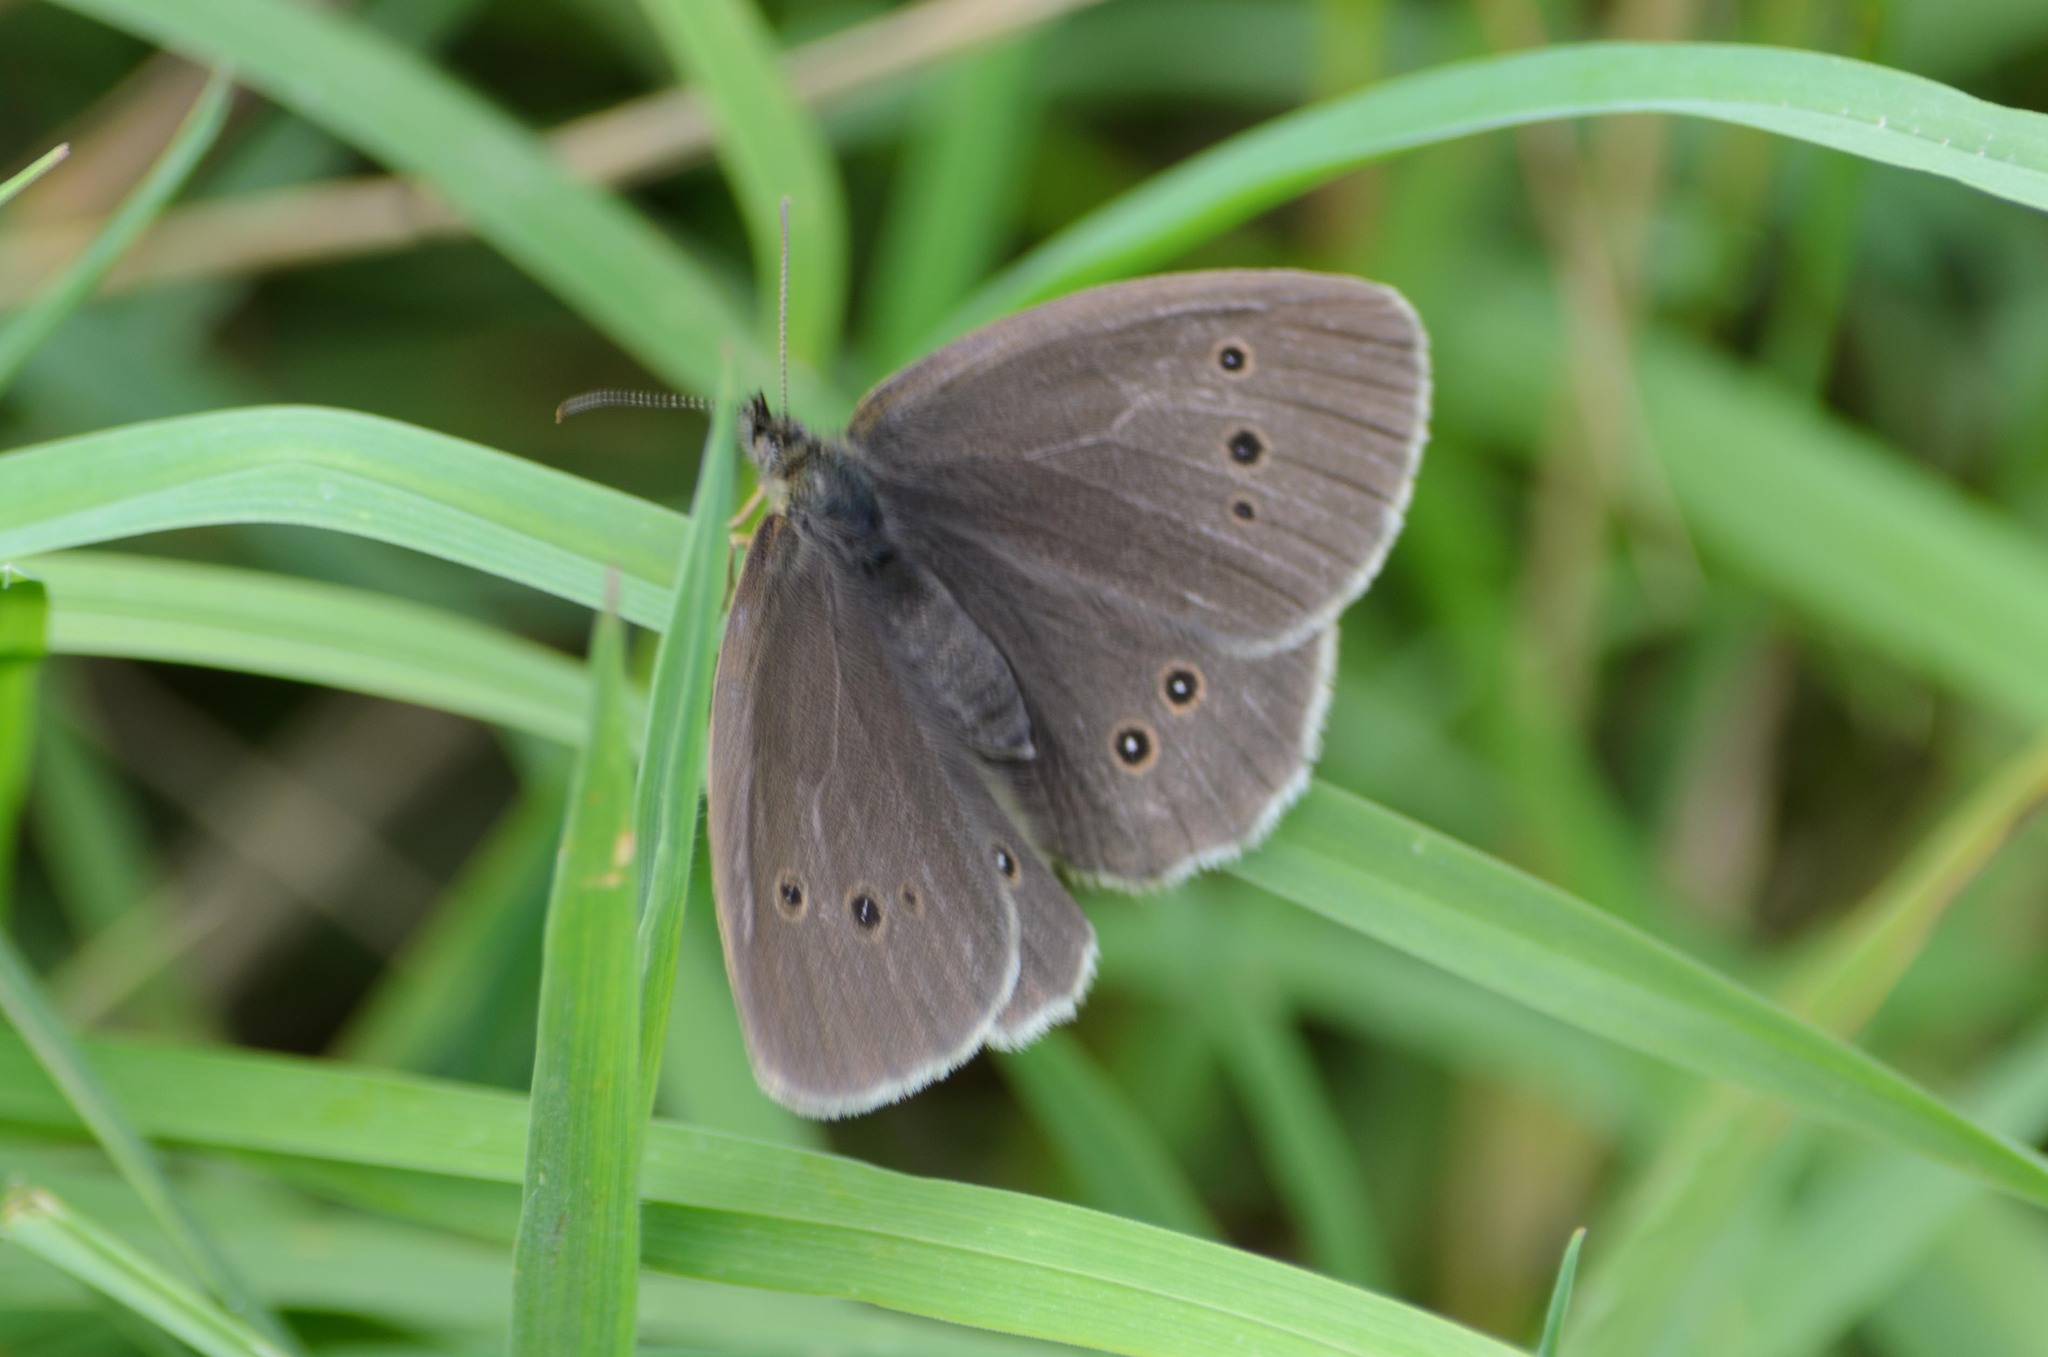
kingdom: Animalia
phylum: Arthropoda
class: Insecta
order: Lepidoptera
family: Nymphalidae
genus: Aphantopus
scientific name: Aphantopus hyperantus
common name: Ringlet
